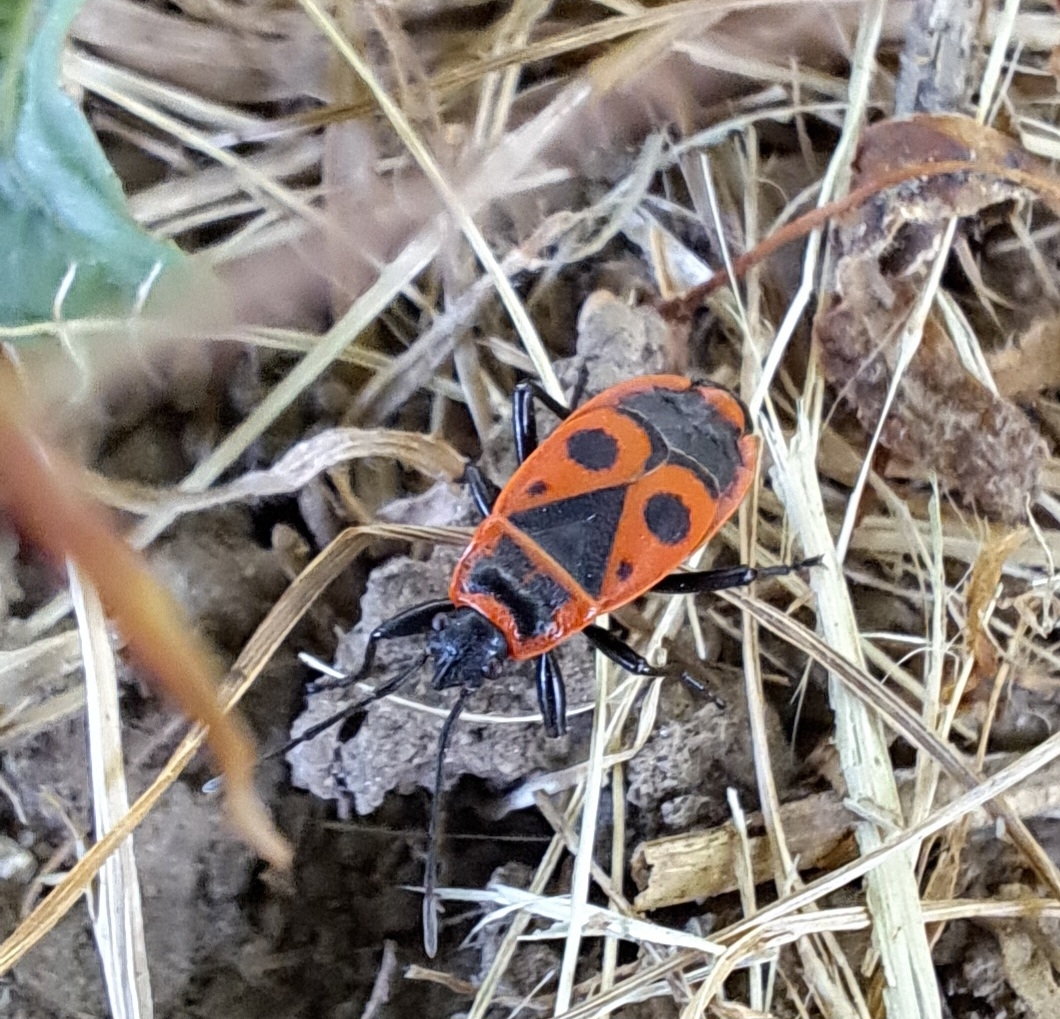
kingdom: Animalia
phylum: Arthropoda
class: Insecta
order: Hemiptera
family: Pyrrhocoridae
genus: Pyrrhocoris
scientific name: Pyrrhocoris apterus
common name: Firebug
